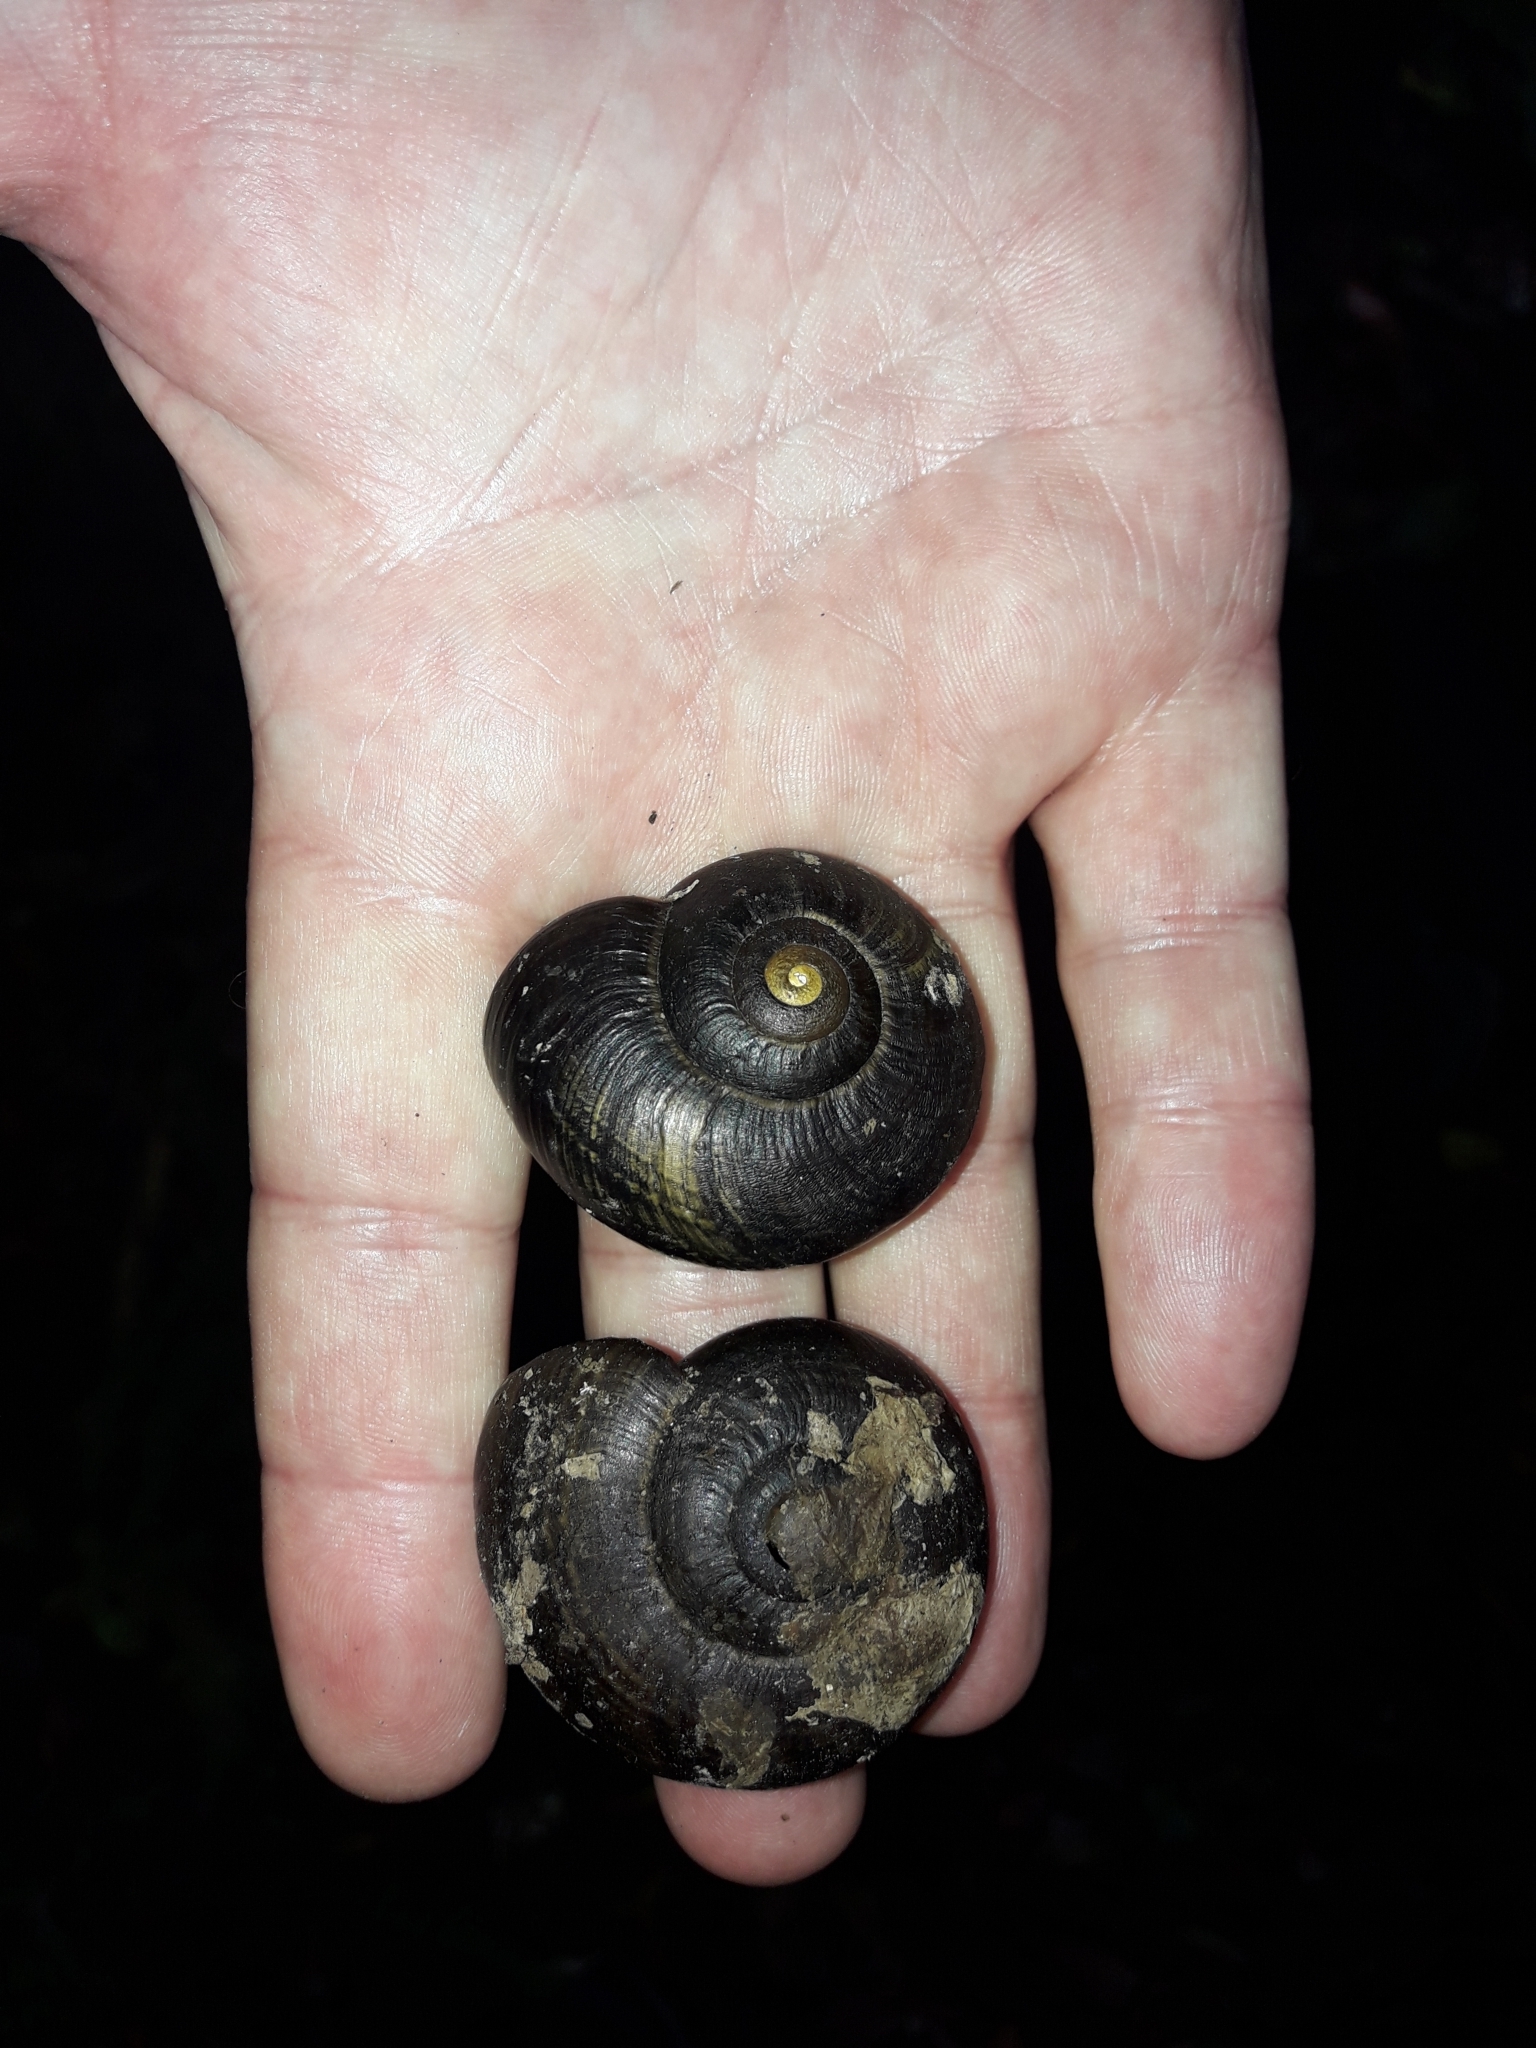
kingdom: Animalia
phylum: Mollusca
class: Gastropoda
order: Stylommatophora
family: Rhytididae
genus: Powelliphanta
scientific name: Powelliphanta traversi
